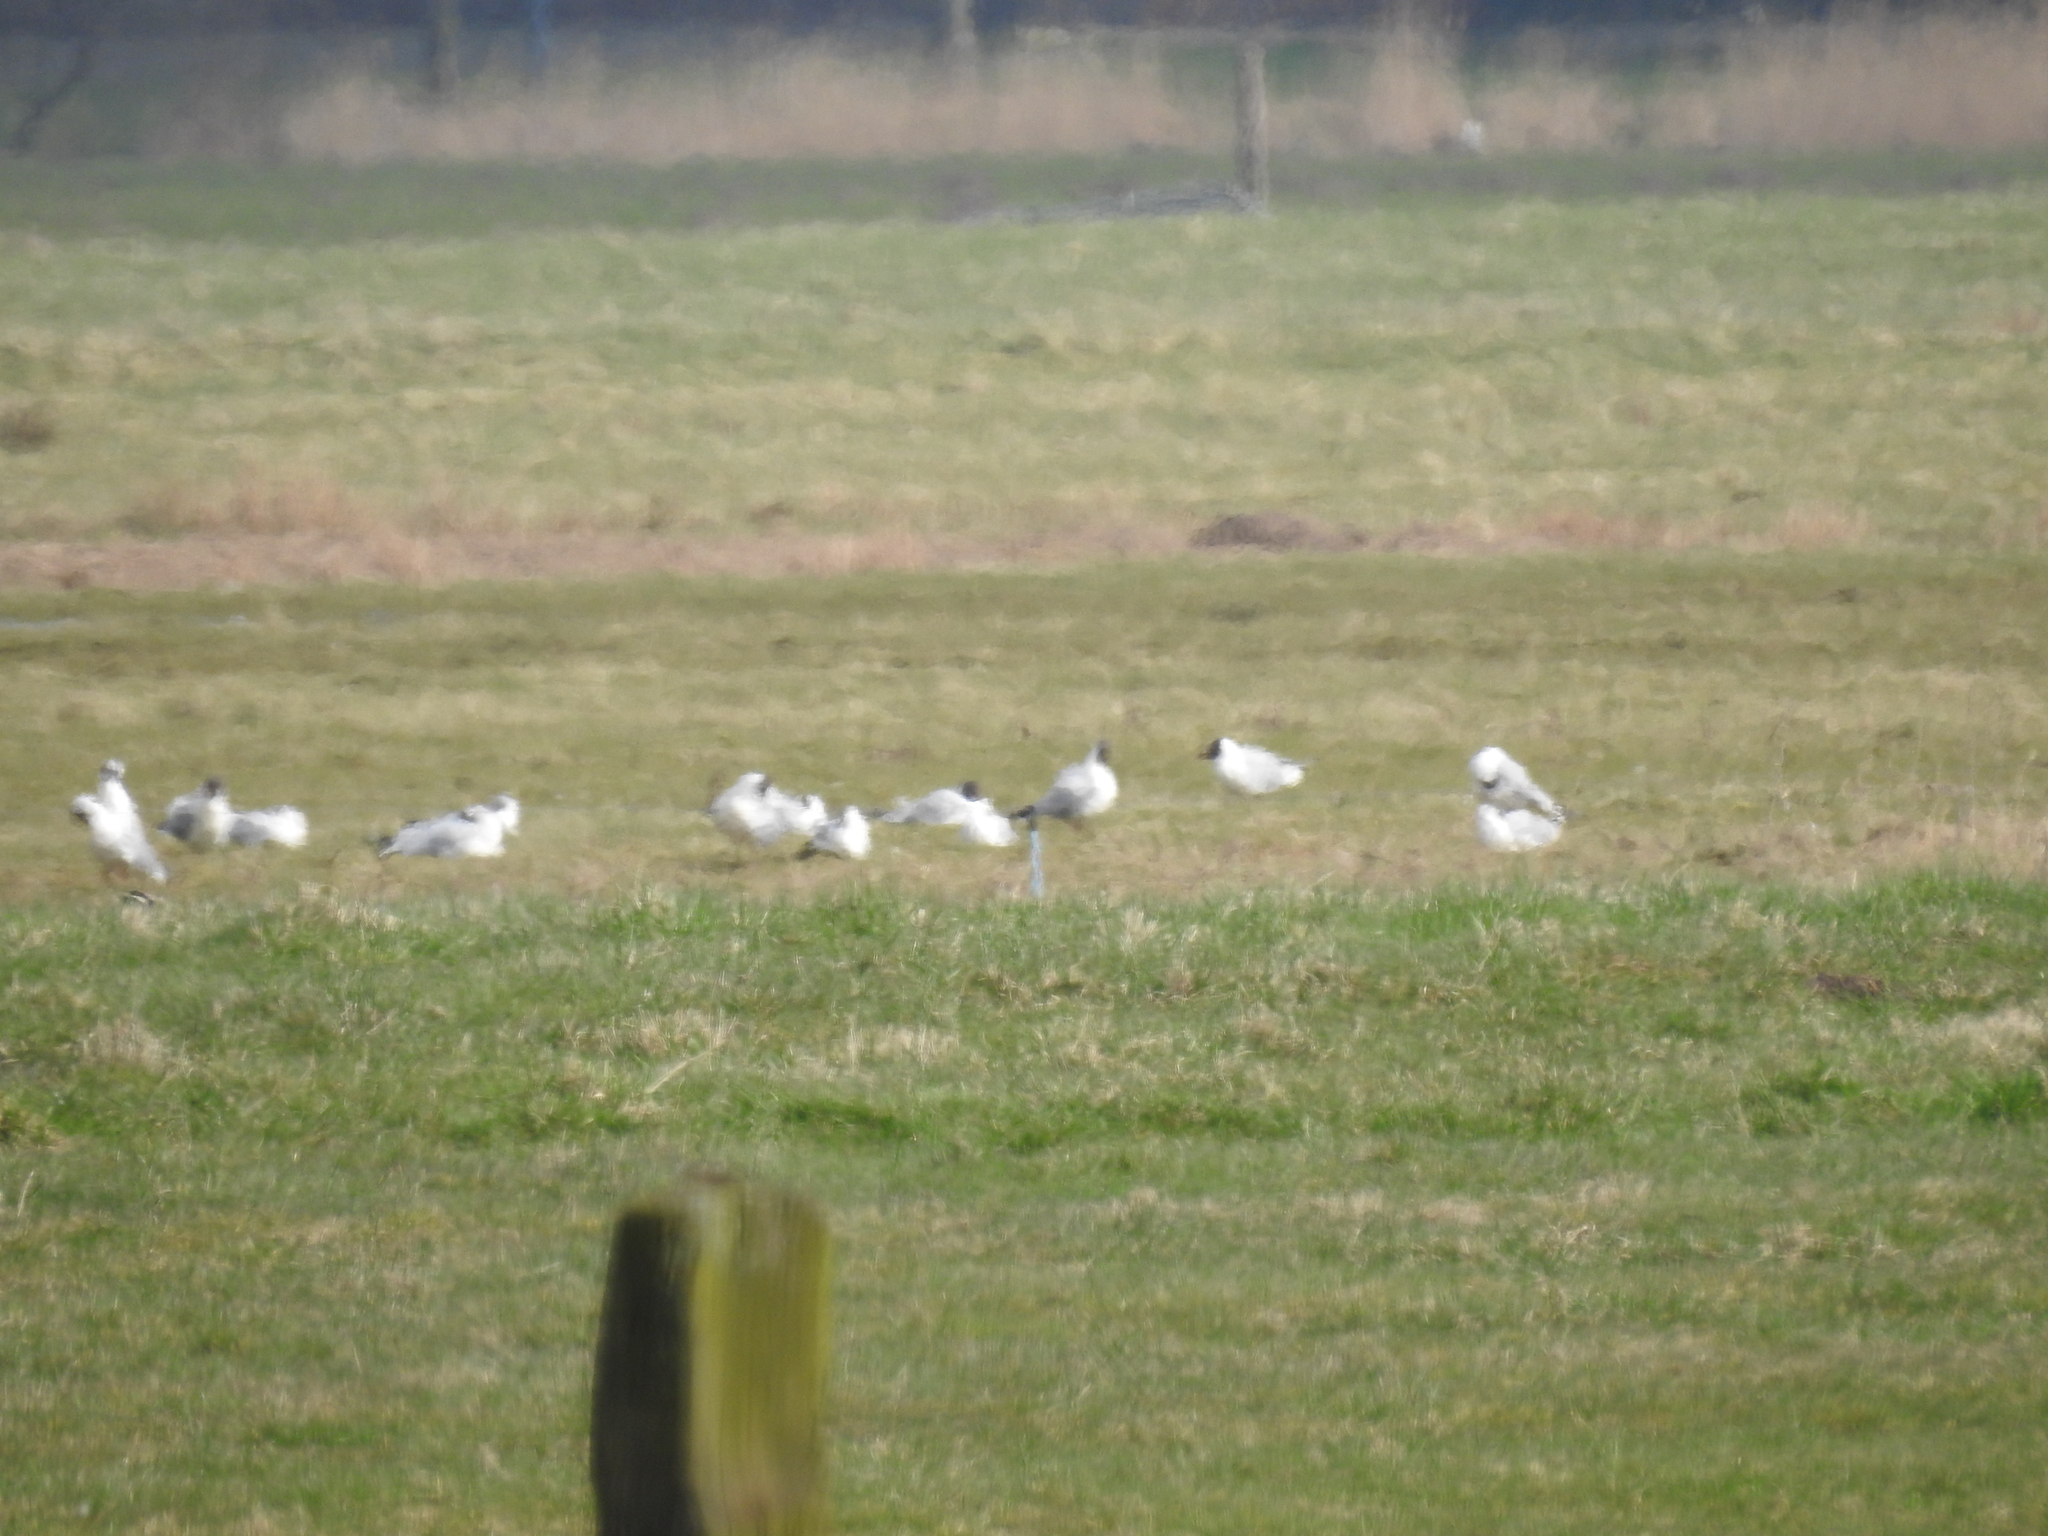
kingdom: Animalia
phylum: Chordata
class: Aves
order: Charadriiformes
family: Laridae
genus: Chroicocephalus
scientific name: Chroicocephalus ridibundus
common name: Black-headed gull
